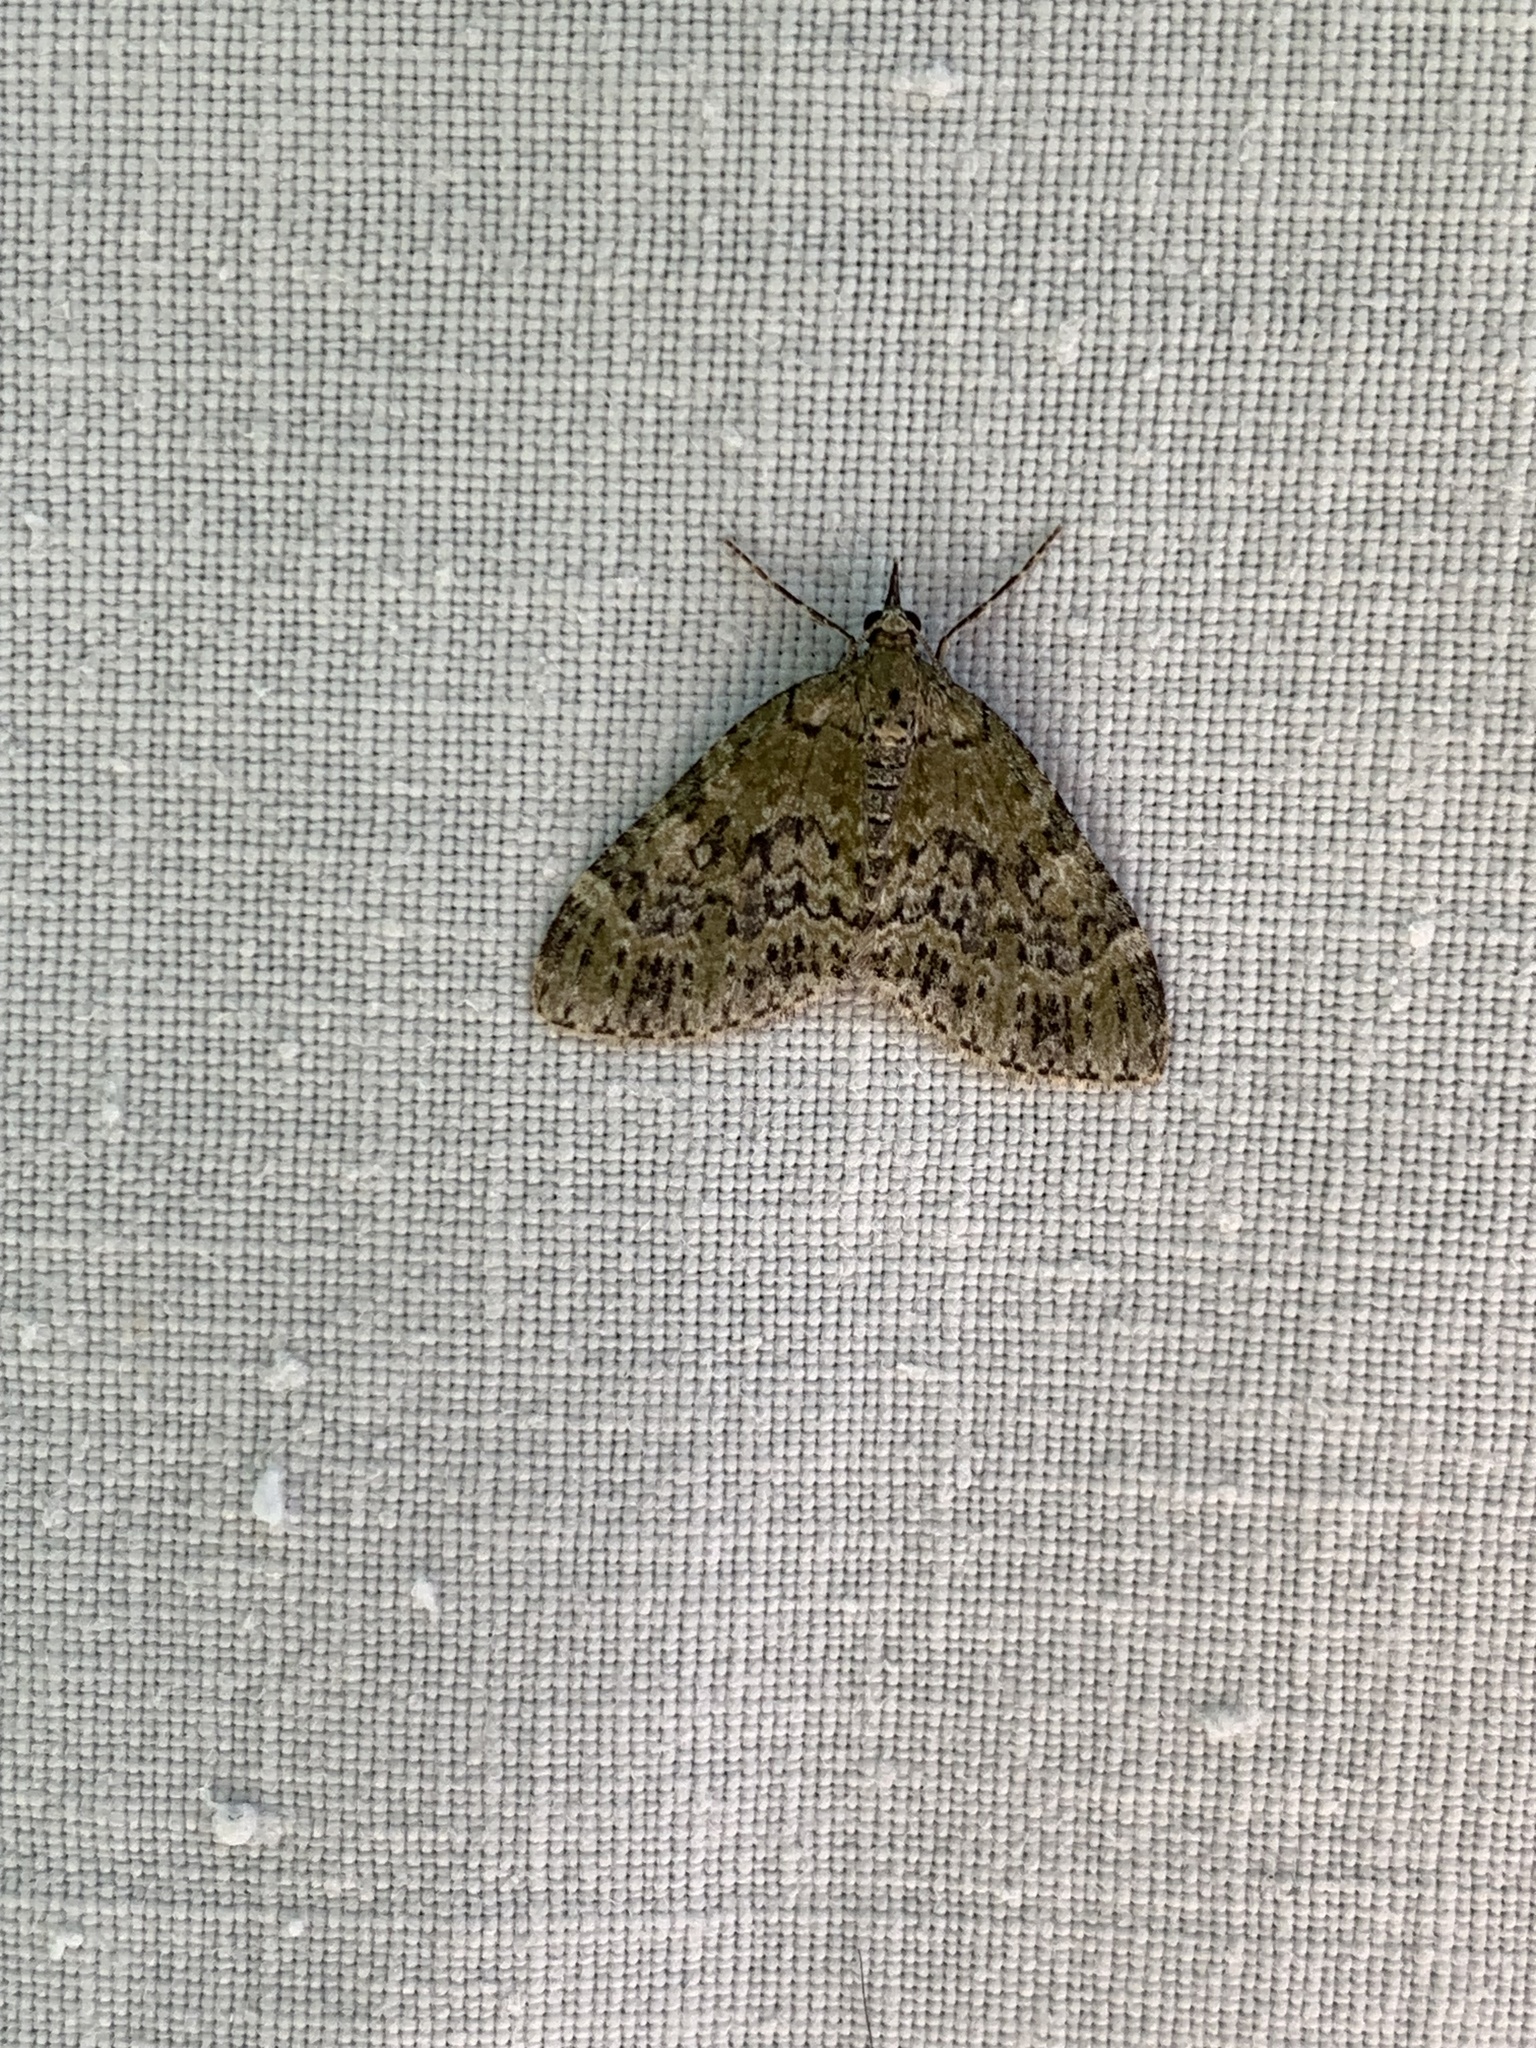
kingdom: Animalia
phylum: Arthropoda
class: Insecta
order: Lepidoptera
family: Geometridae
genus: Acasis
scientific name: Acasis viretata
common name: Yellow-barred brindle
